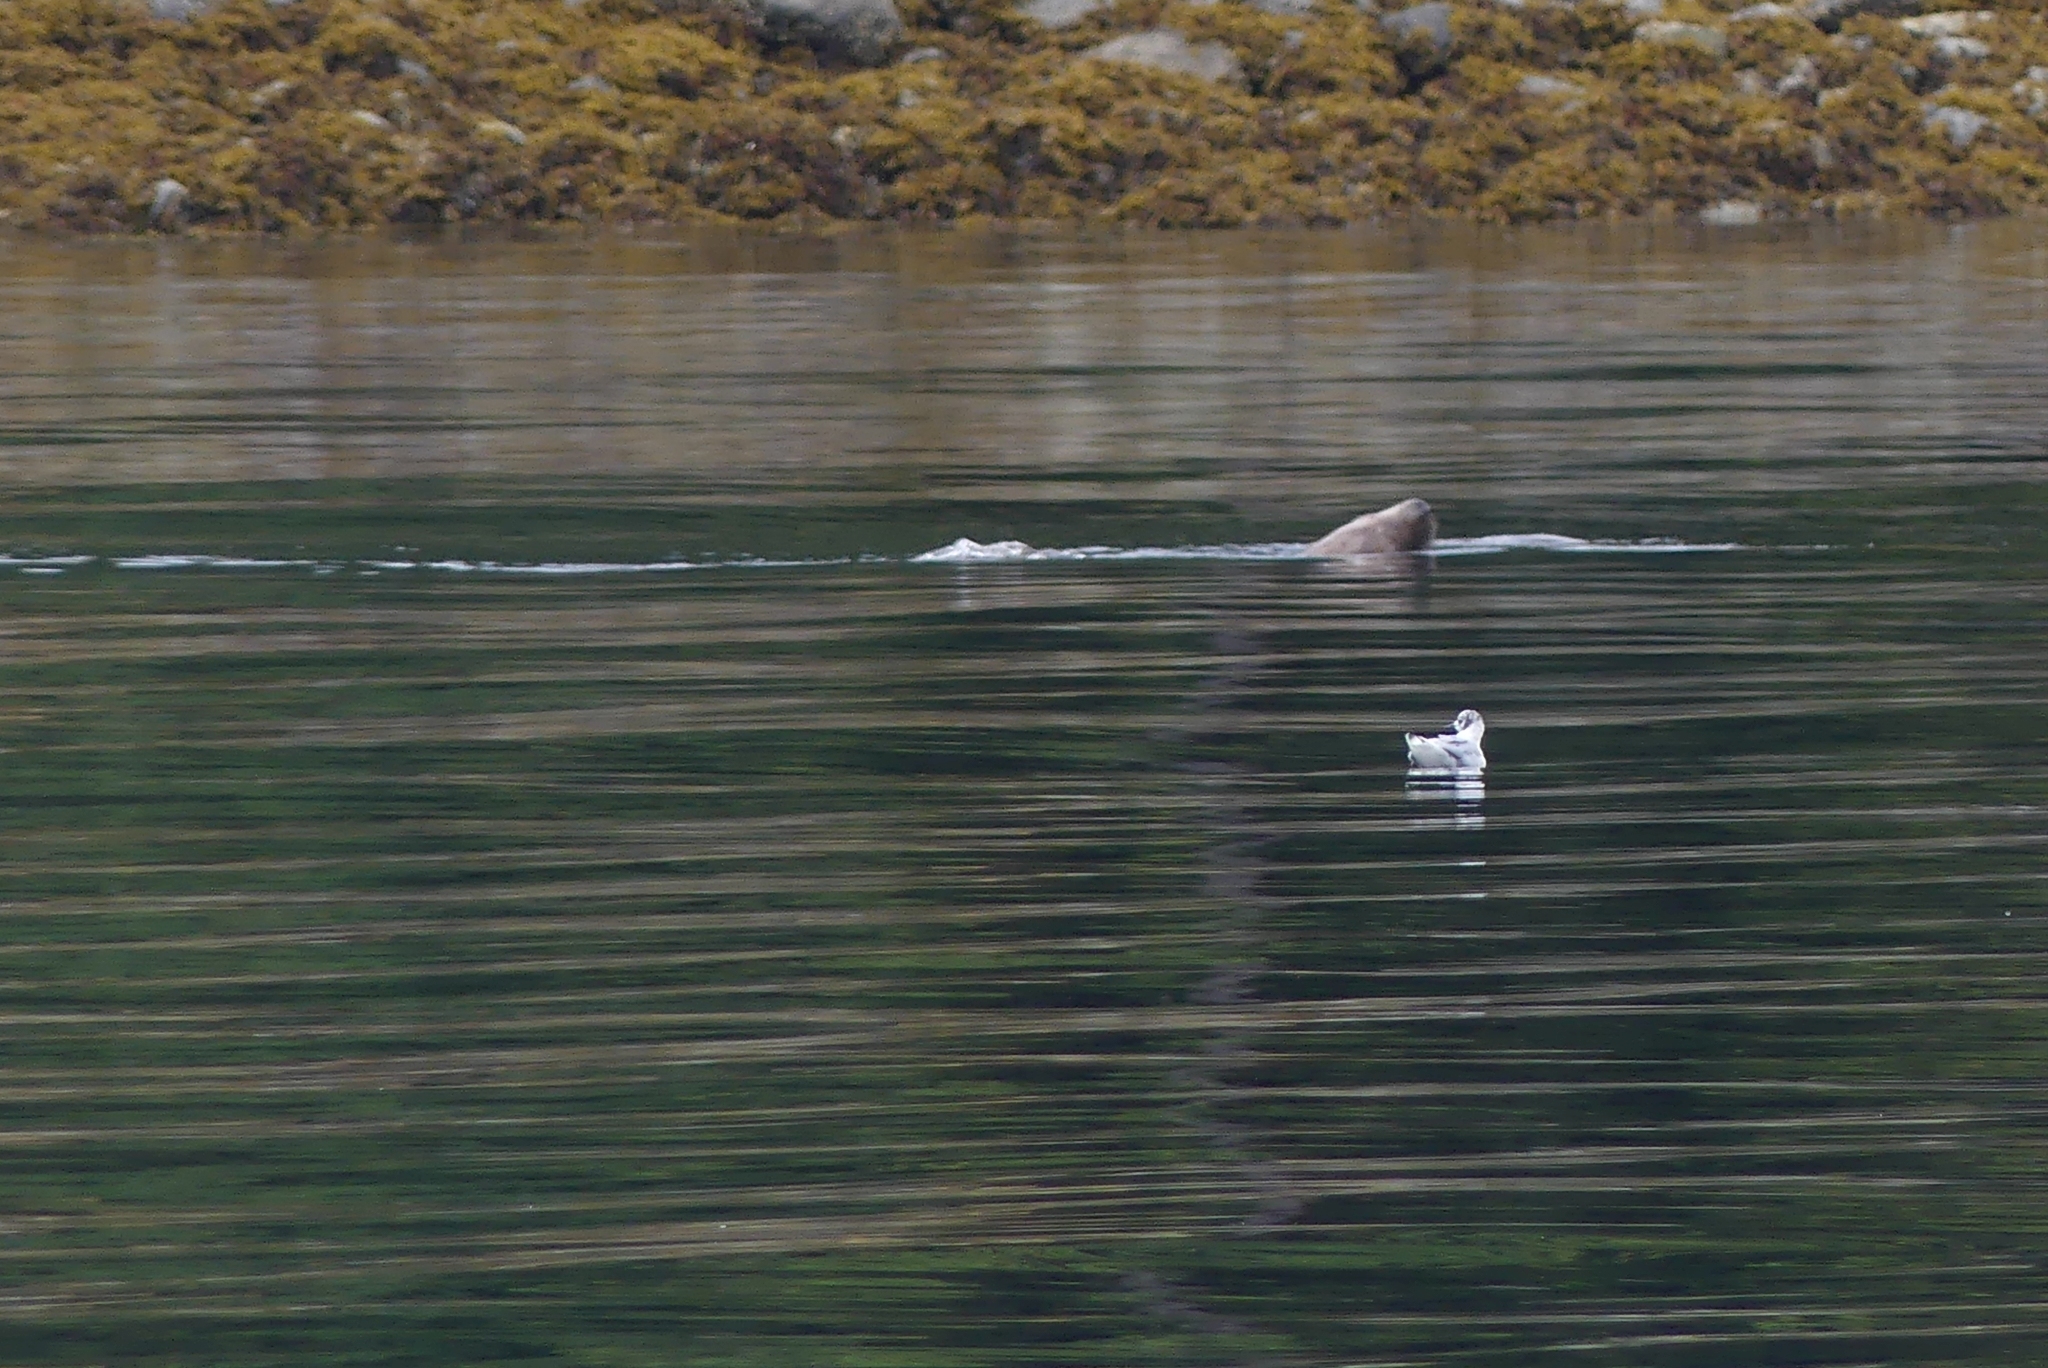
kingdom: Animalia
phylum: Chordata
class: Aves
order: Charadriiformes
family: Laridae
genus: Chroicocephalus
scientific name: Chroicocephalus philadelphia
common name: Bonaparte's gull
